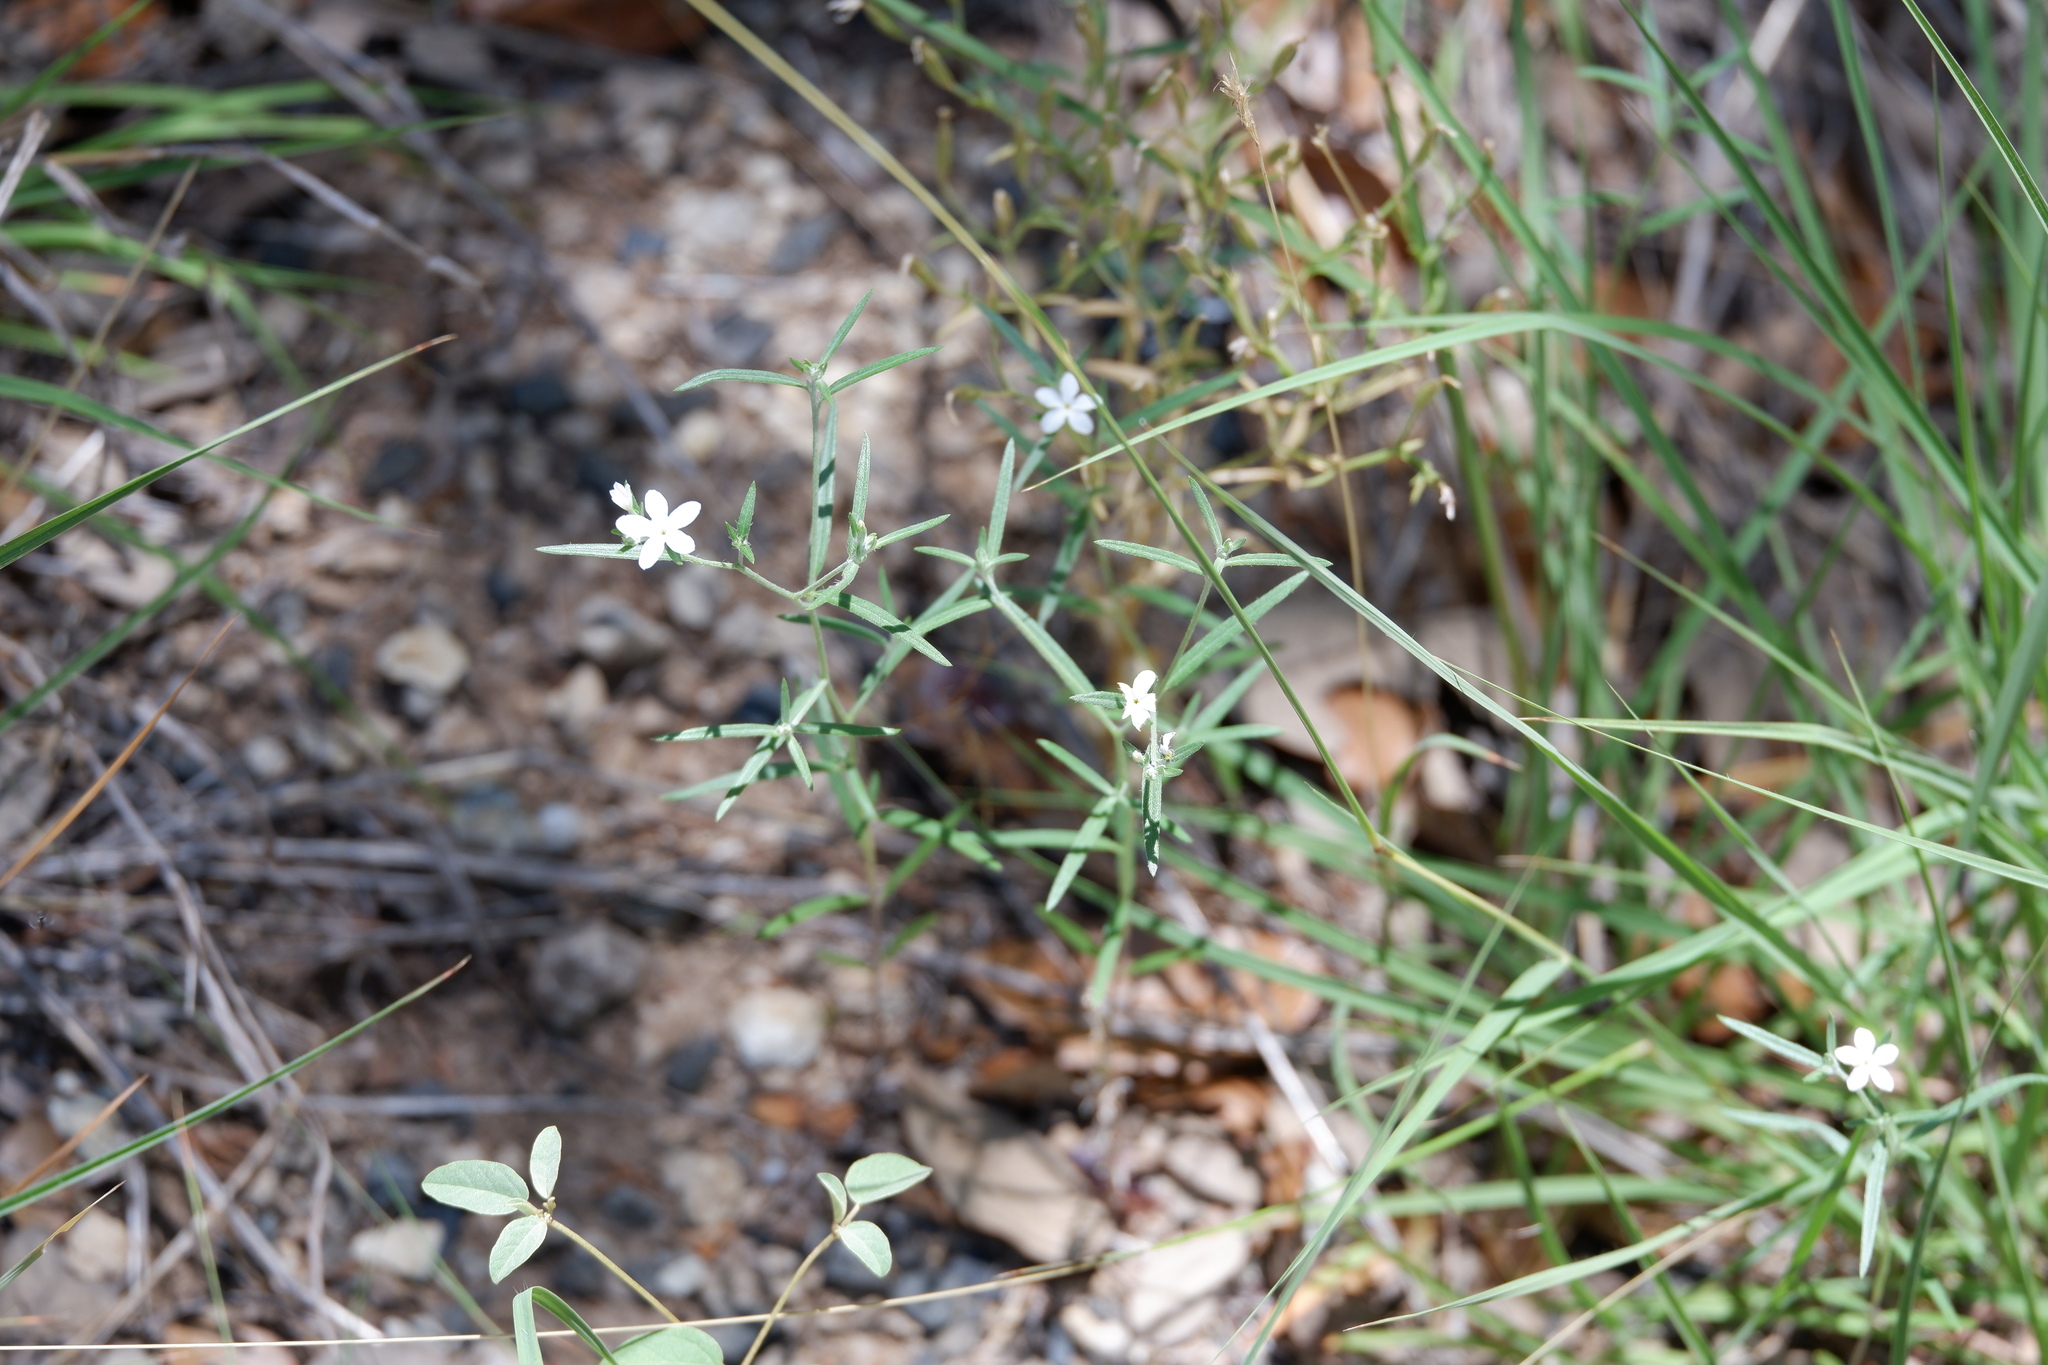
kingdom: Plantae
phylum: Tracheophyta
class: Magnoliopsida
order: Boraginales
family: Heliotropiaceae
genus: Euploca
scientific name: Euploca tenella
